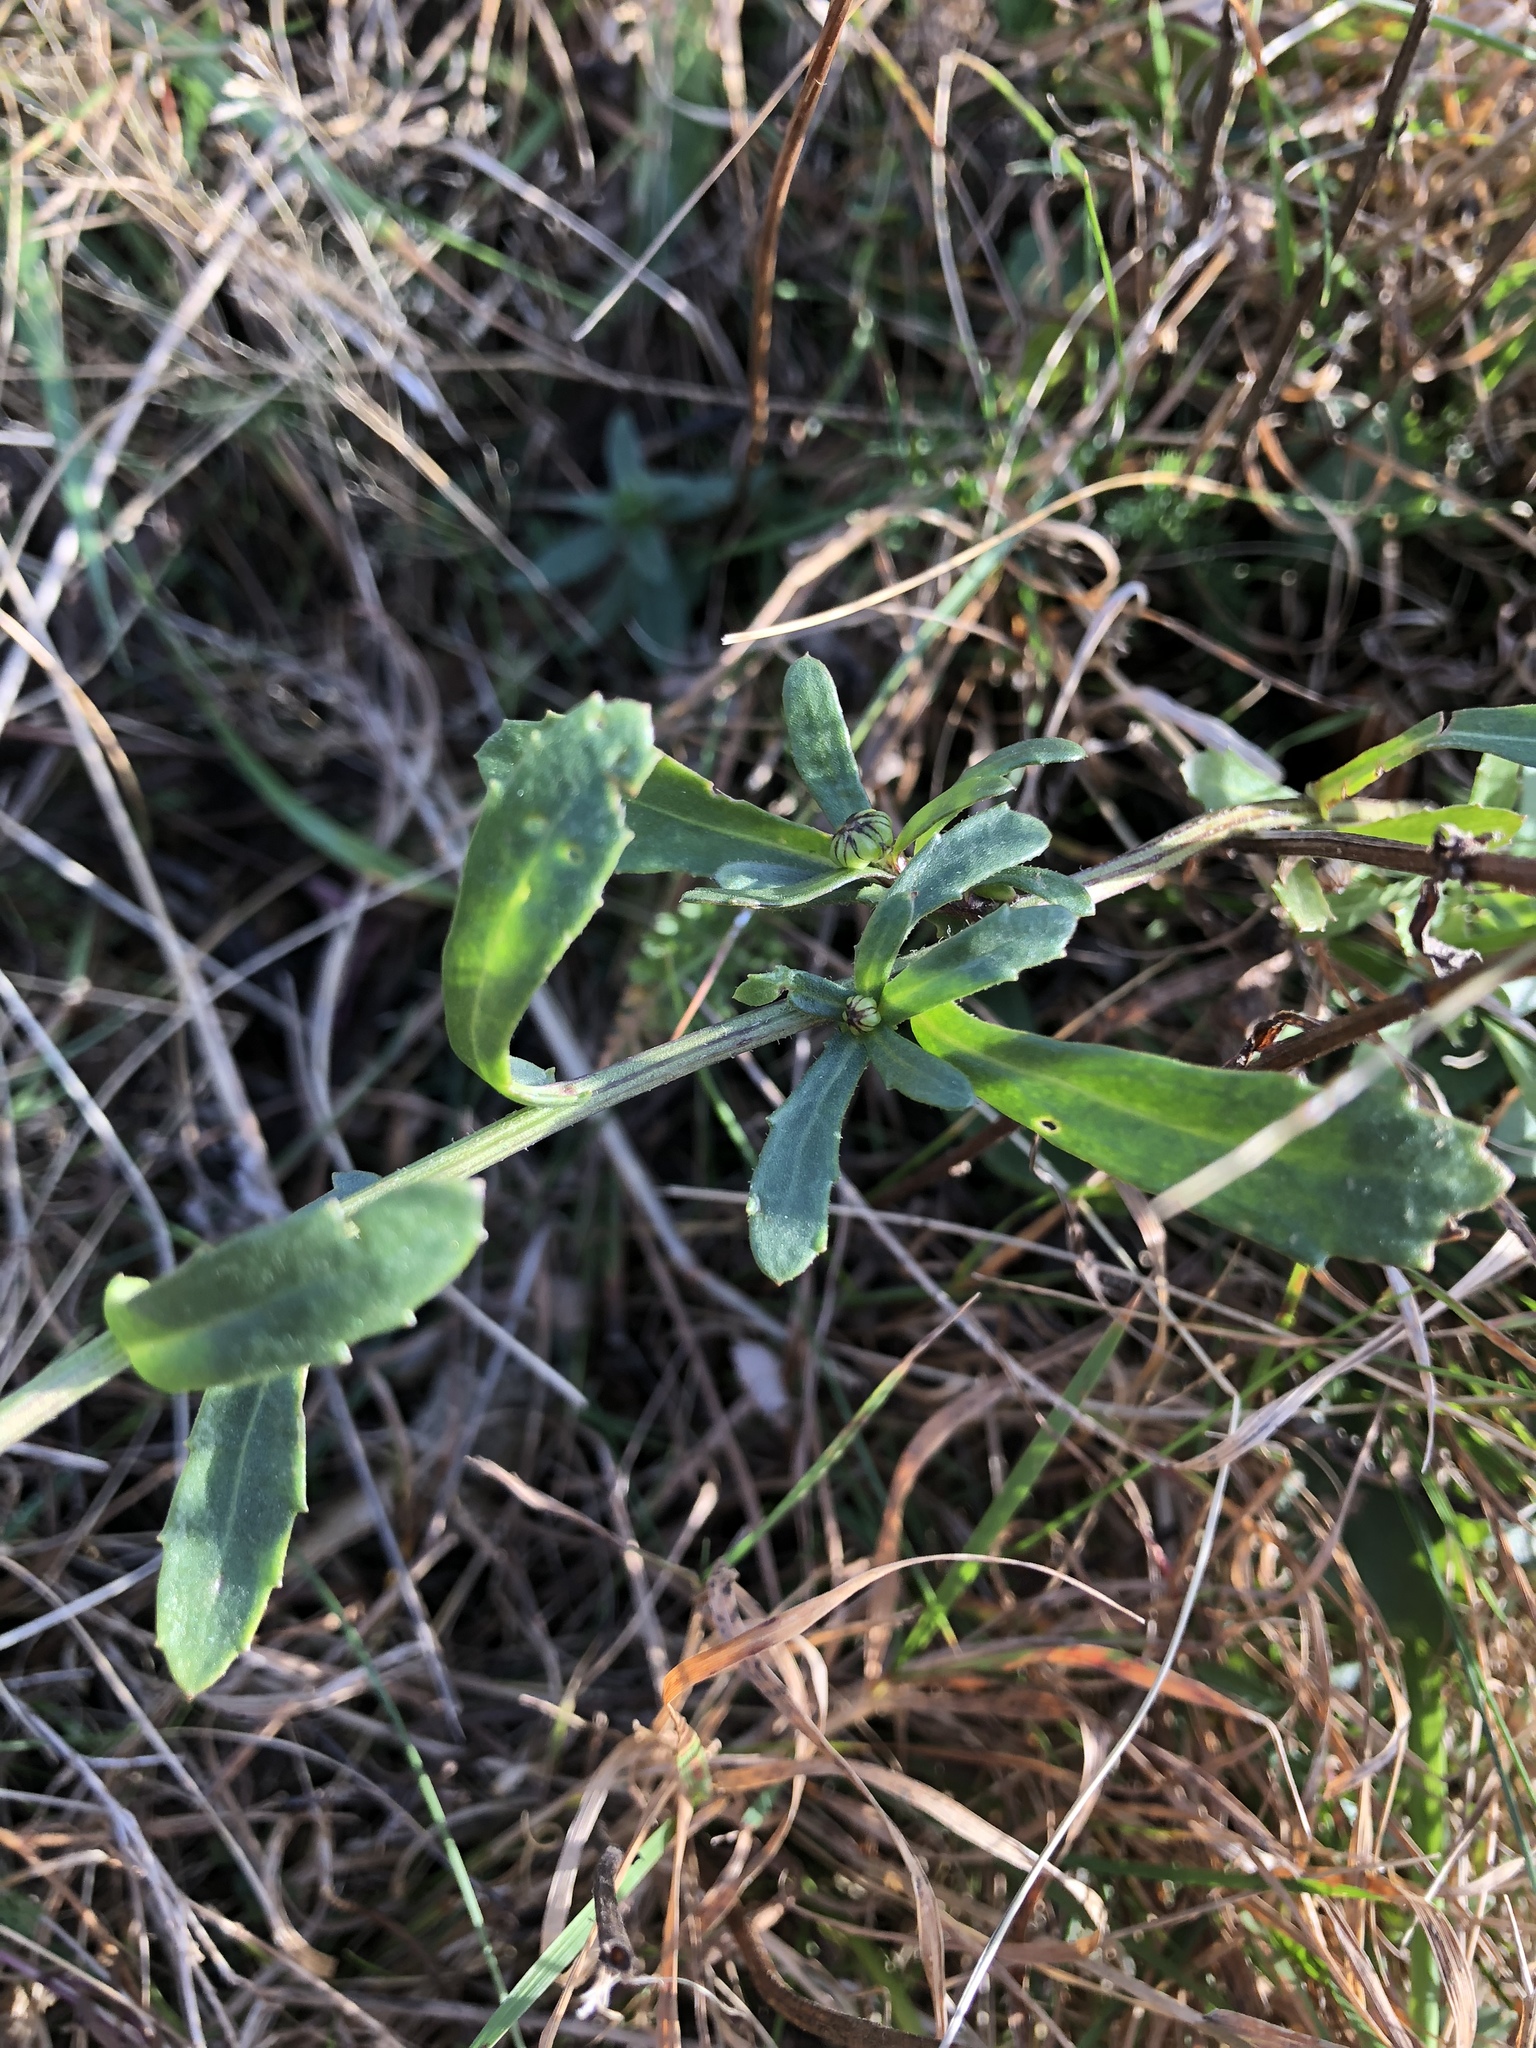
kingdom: Plantae
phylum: Tracheophyta
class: Magnoliopsida
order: Asterales
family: Asteraceae
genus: Leucanthemum
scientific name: Leucanthemum vulgare
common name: Oxeye daisy
